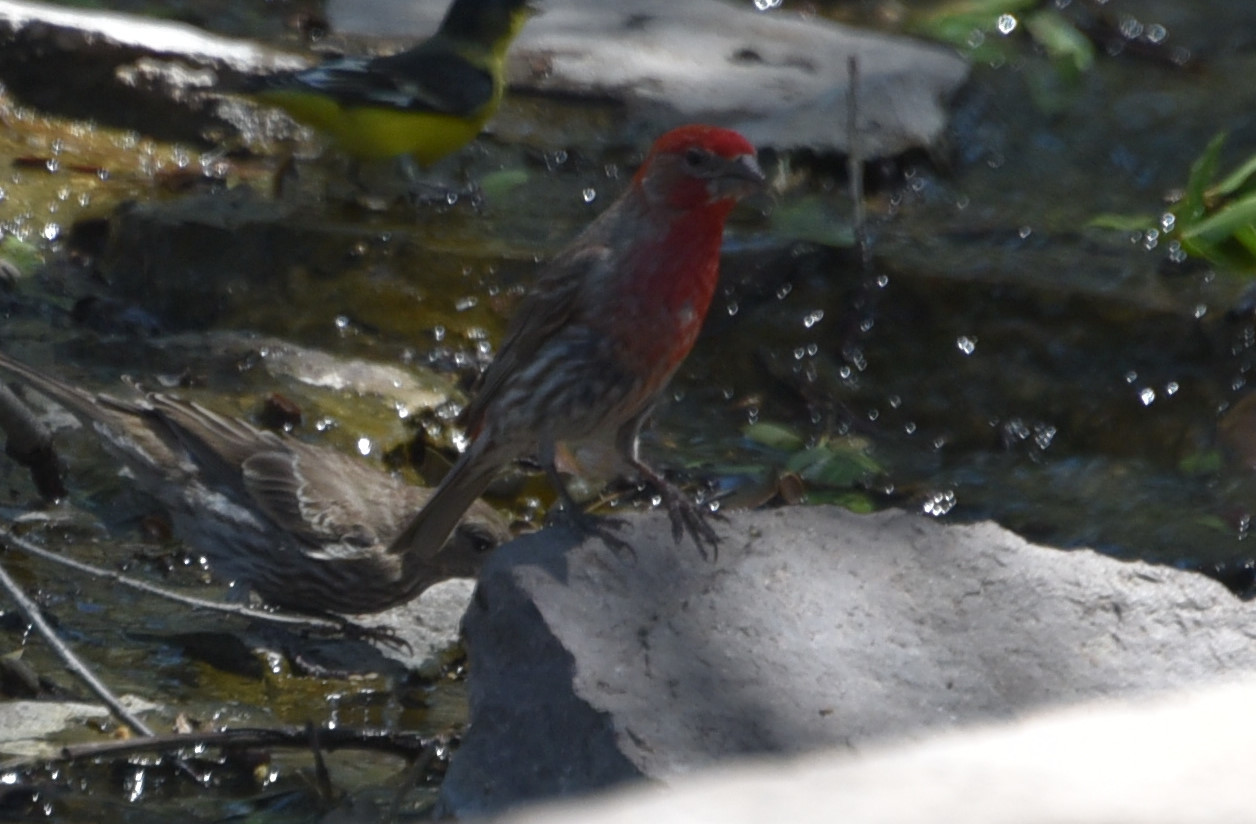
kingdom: Animalia
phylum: Chordata
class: Aves
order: Passeriformes
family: Fringillidae
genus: Haemorhous
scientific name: Haemorhous mexicanus
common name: House finch
